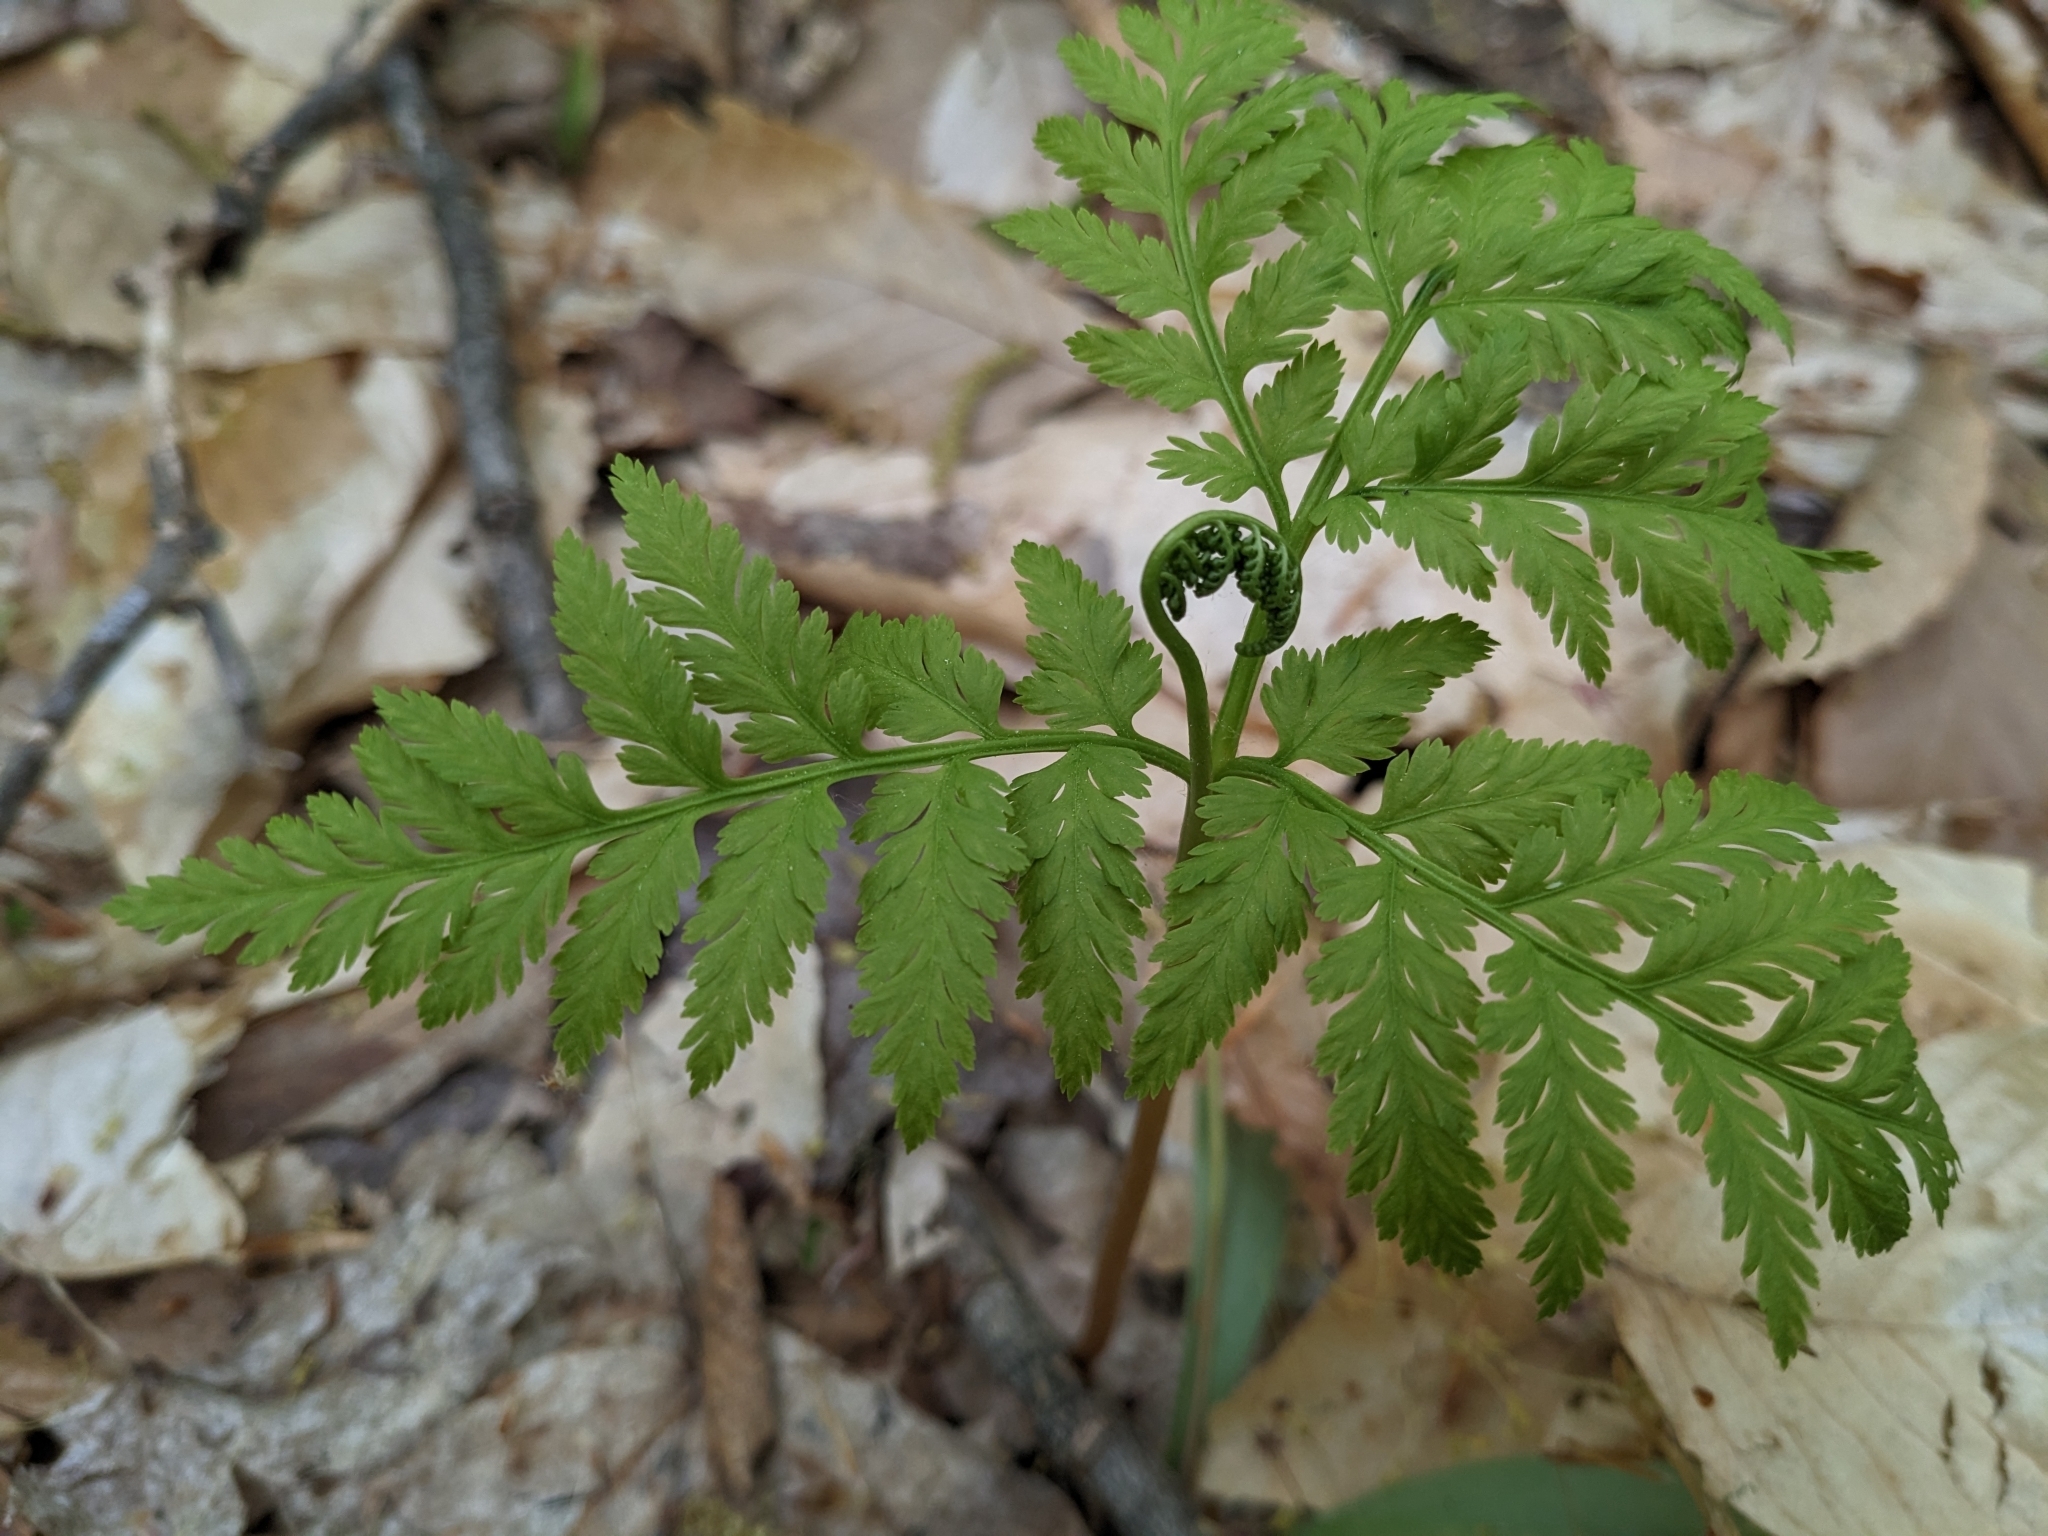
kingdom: Plantae
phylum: Tracheophyta
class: Polypodiopsida
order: Ophioglossales
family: Ophioglossaceae
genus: Botrypus
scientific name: Botrypus virginianus
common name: Common grapefern
